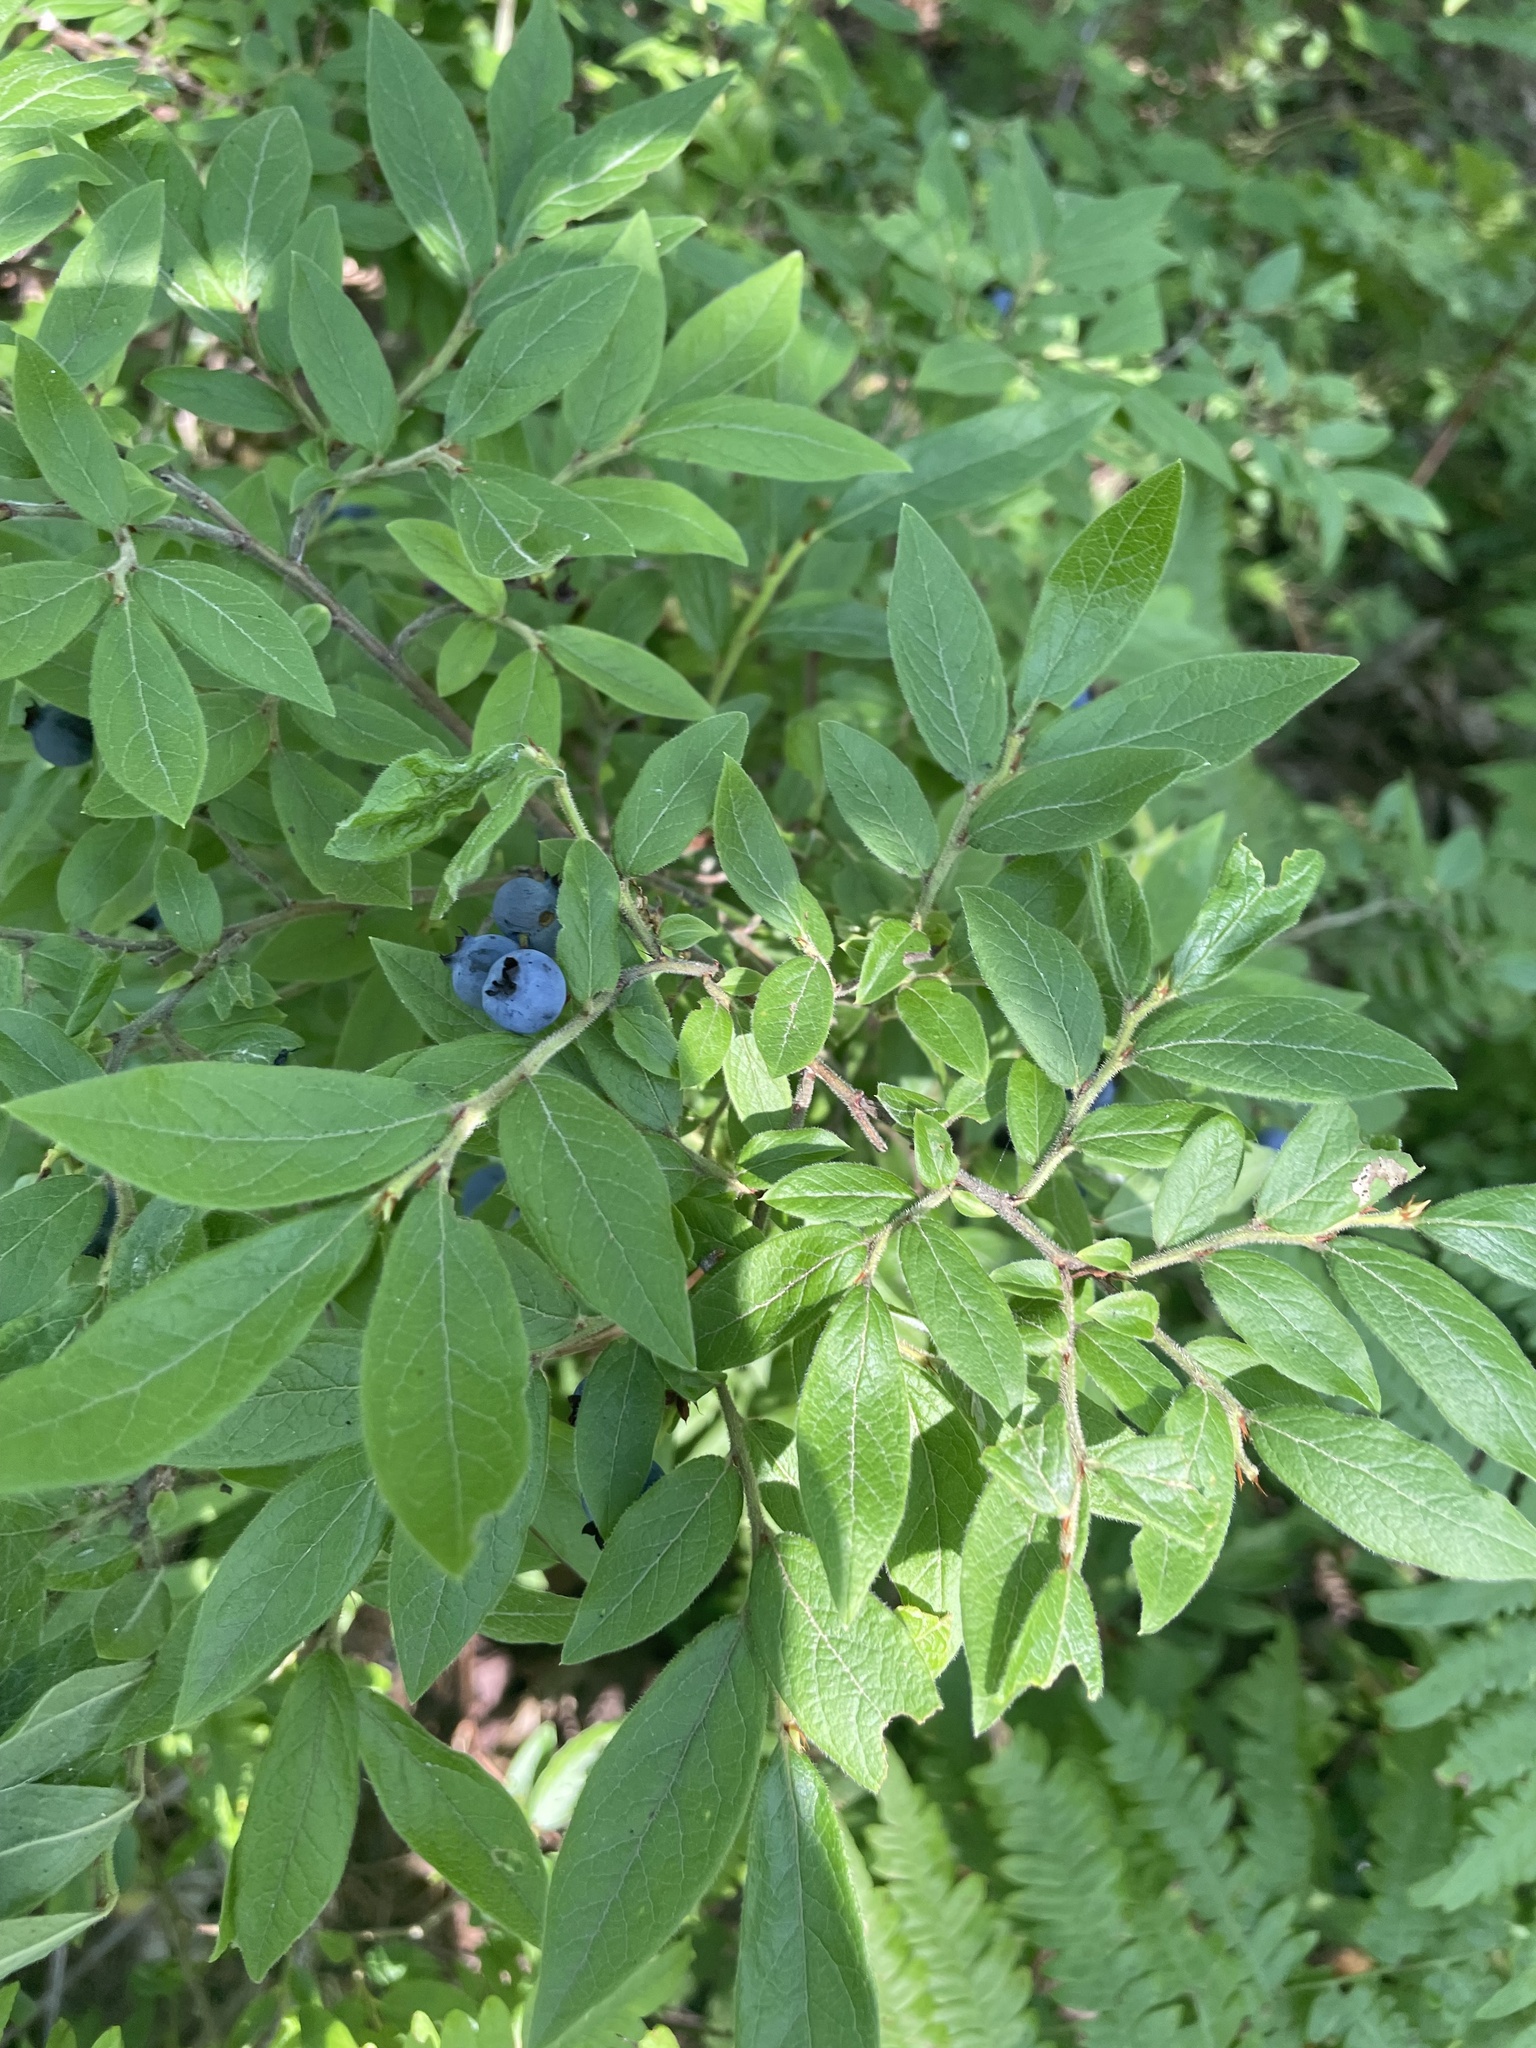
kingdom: Plantae
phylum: Tracheophyta
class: Magnoliopsida
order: Ericales
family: Ericaceae
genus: Vaccinium
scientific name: Vaccinium myrtilloides
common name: Canada blueberry
